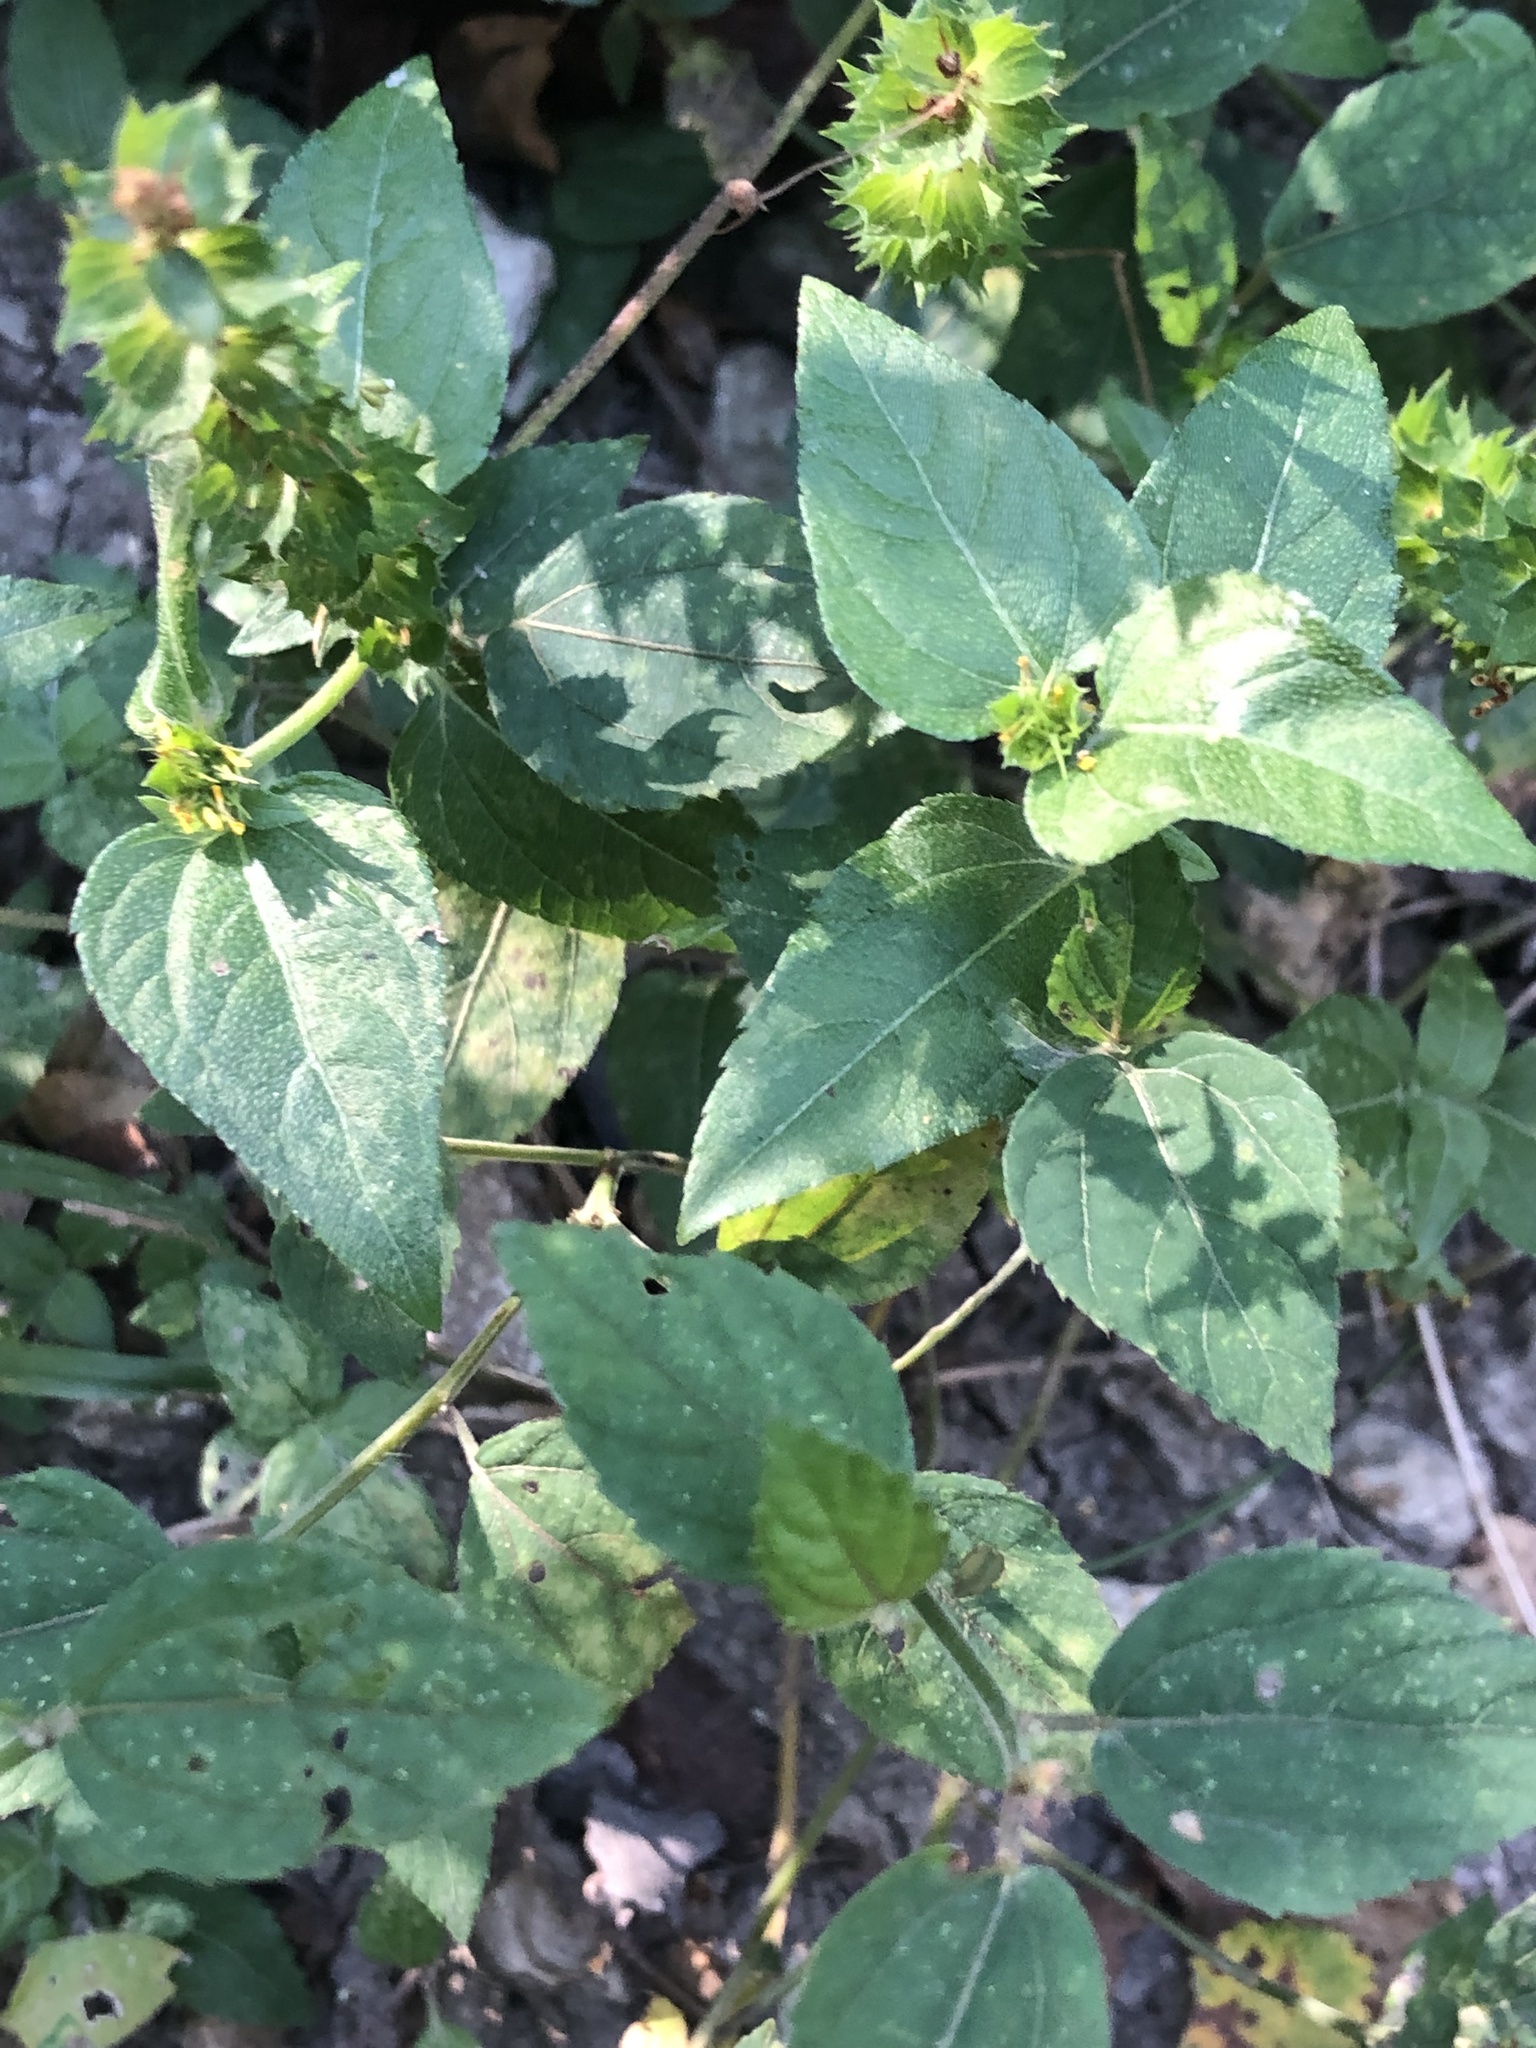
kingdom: Plantae
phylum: Tracheophyta
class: Magnoliopsida
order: Malpighiales
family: Euphorbiaceae
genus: Acalypha
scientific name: Acalypha phleoides
